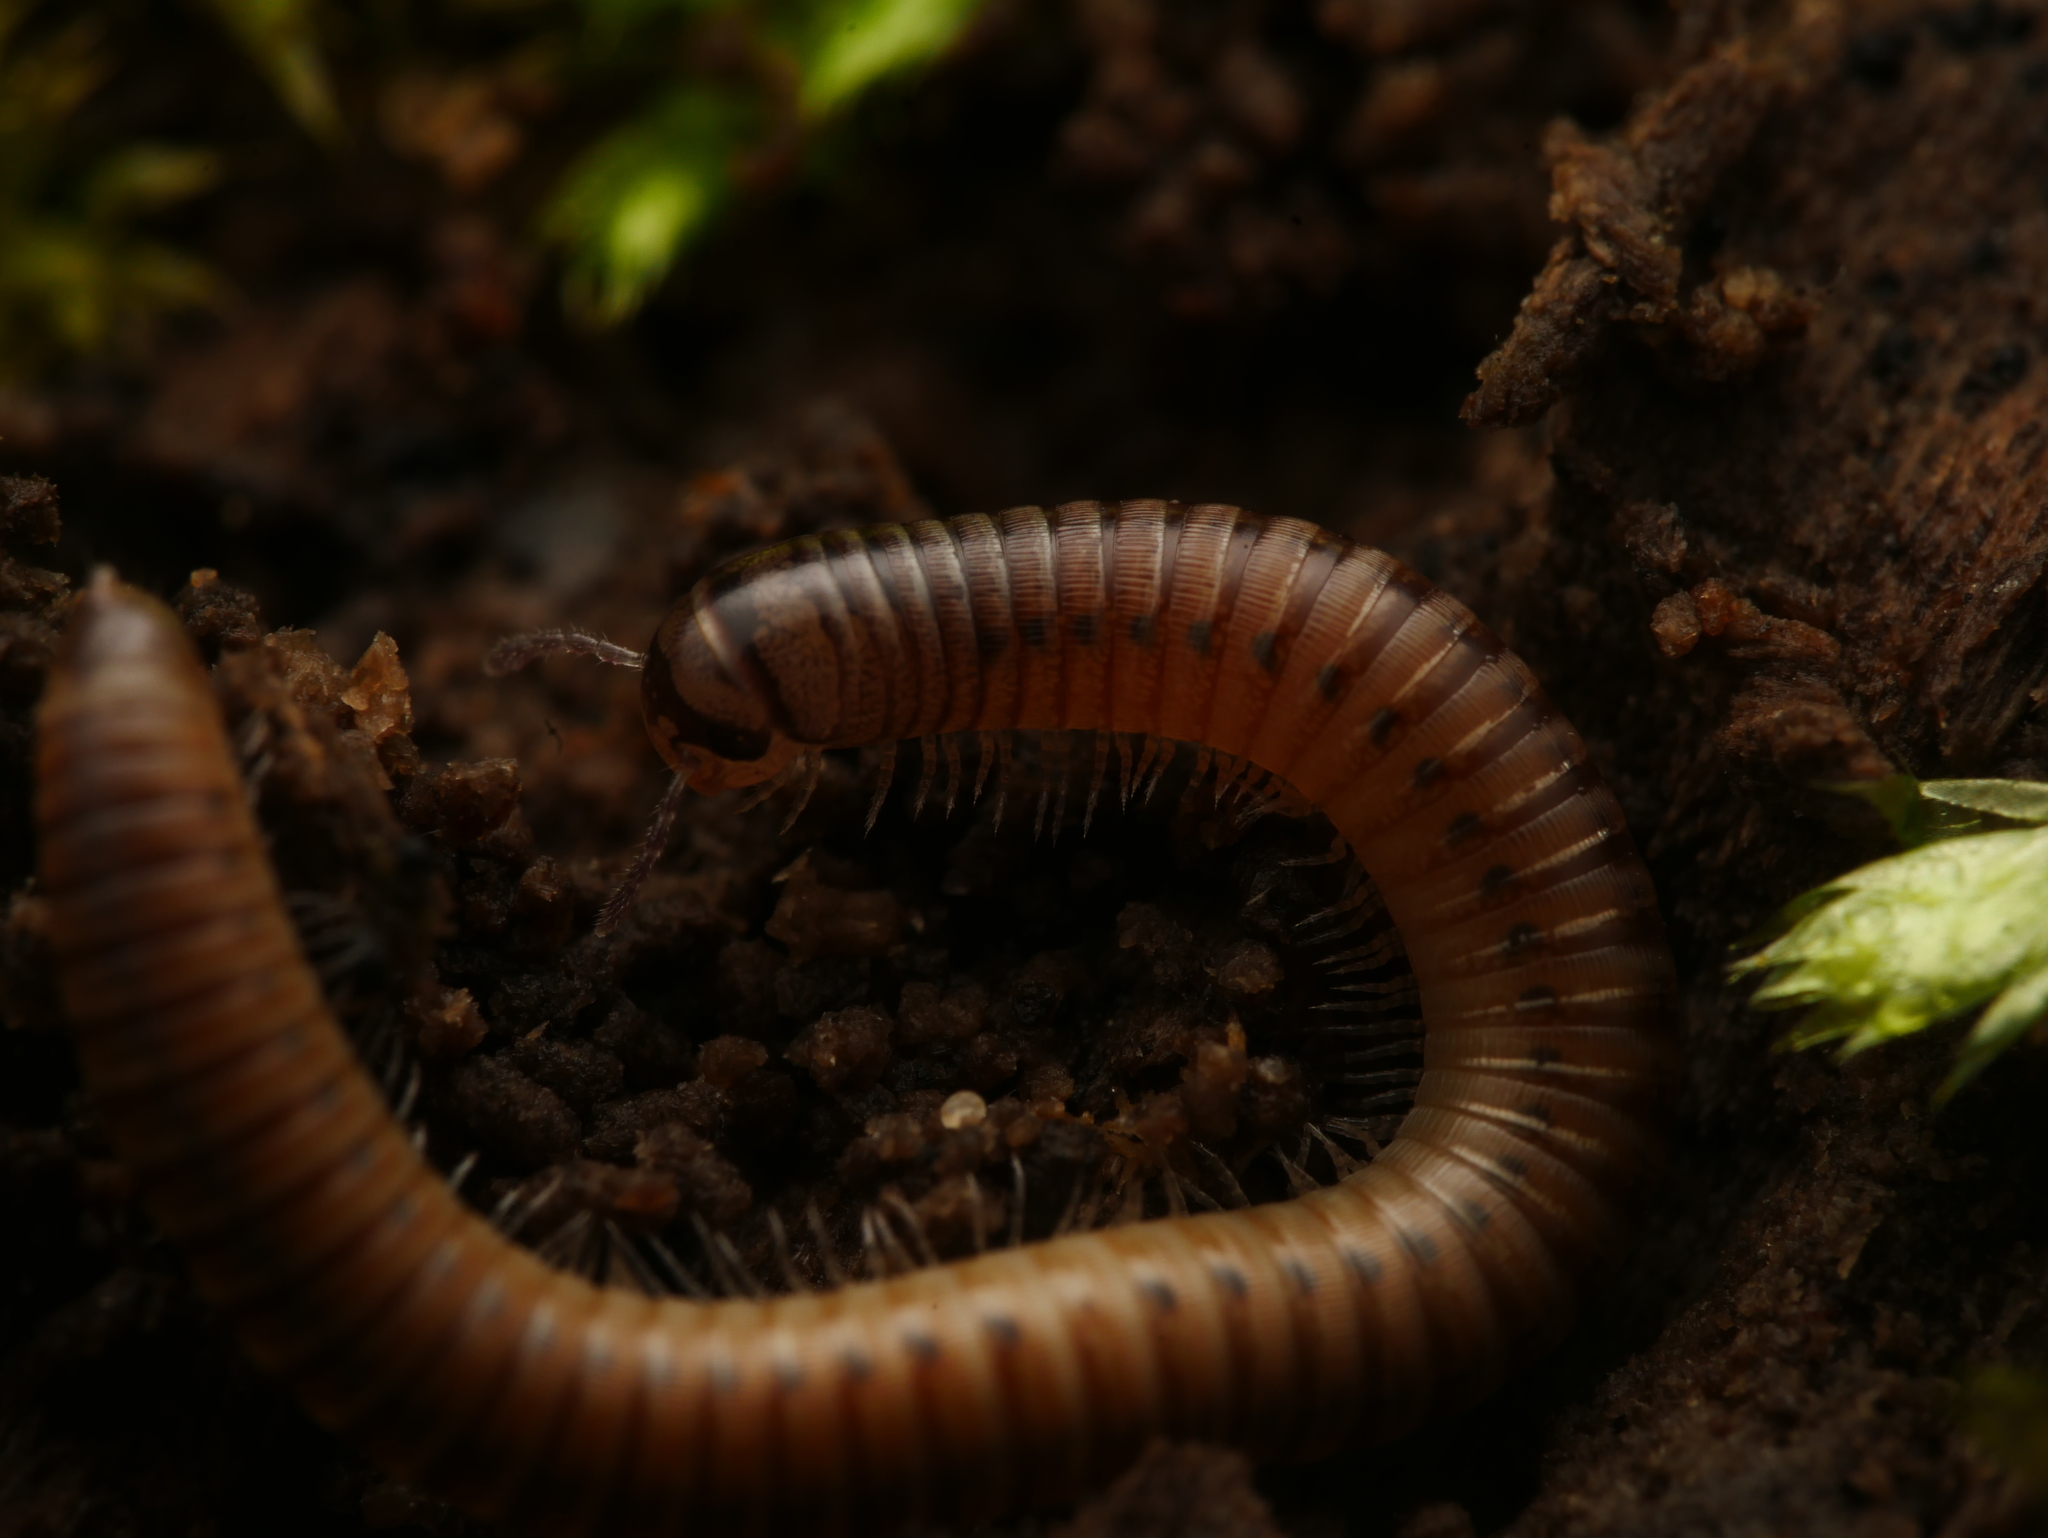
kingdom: Animalia
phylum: Arthropoda
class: Diplopoda
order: Julida
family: Julidae
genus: Cylindroiulus
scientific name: Cylindroiulus punctatus
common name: Blunt-tailed millipede
